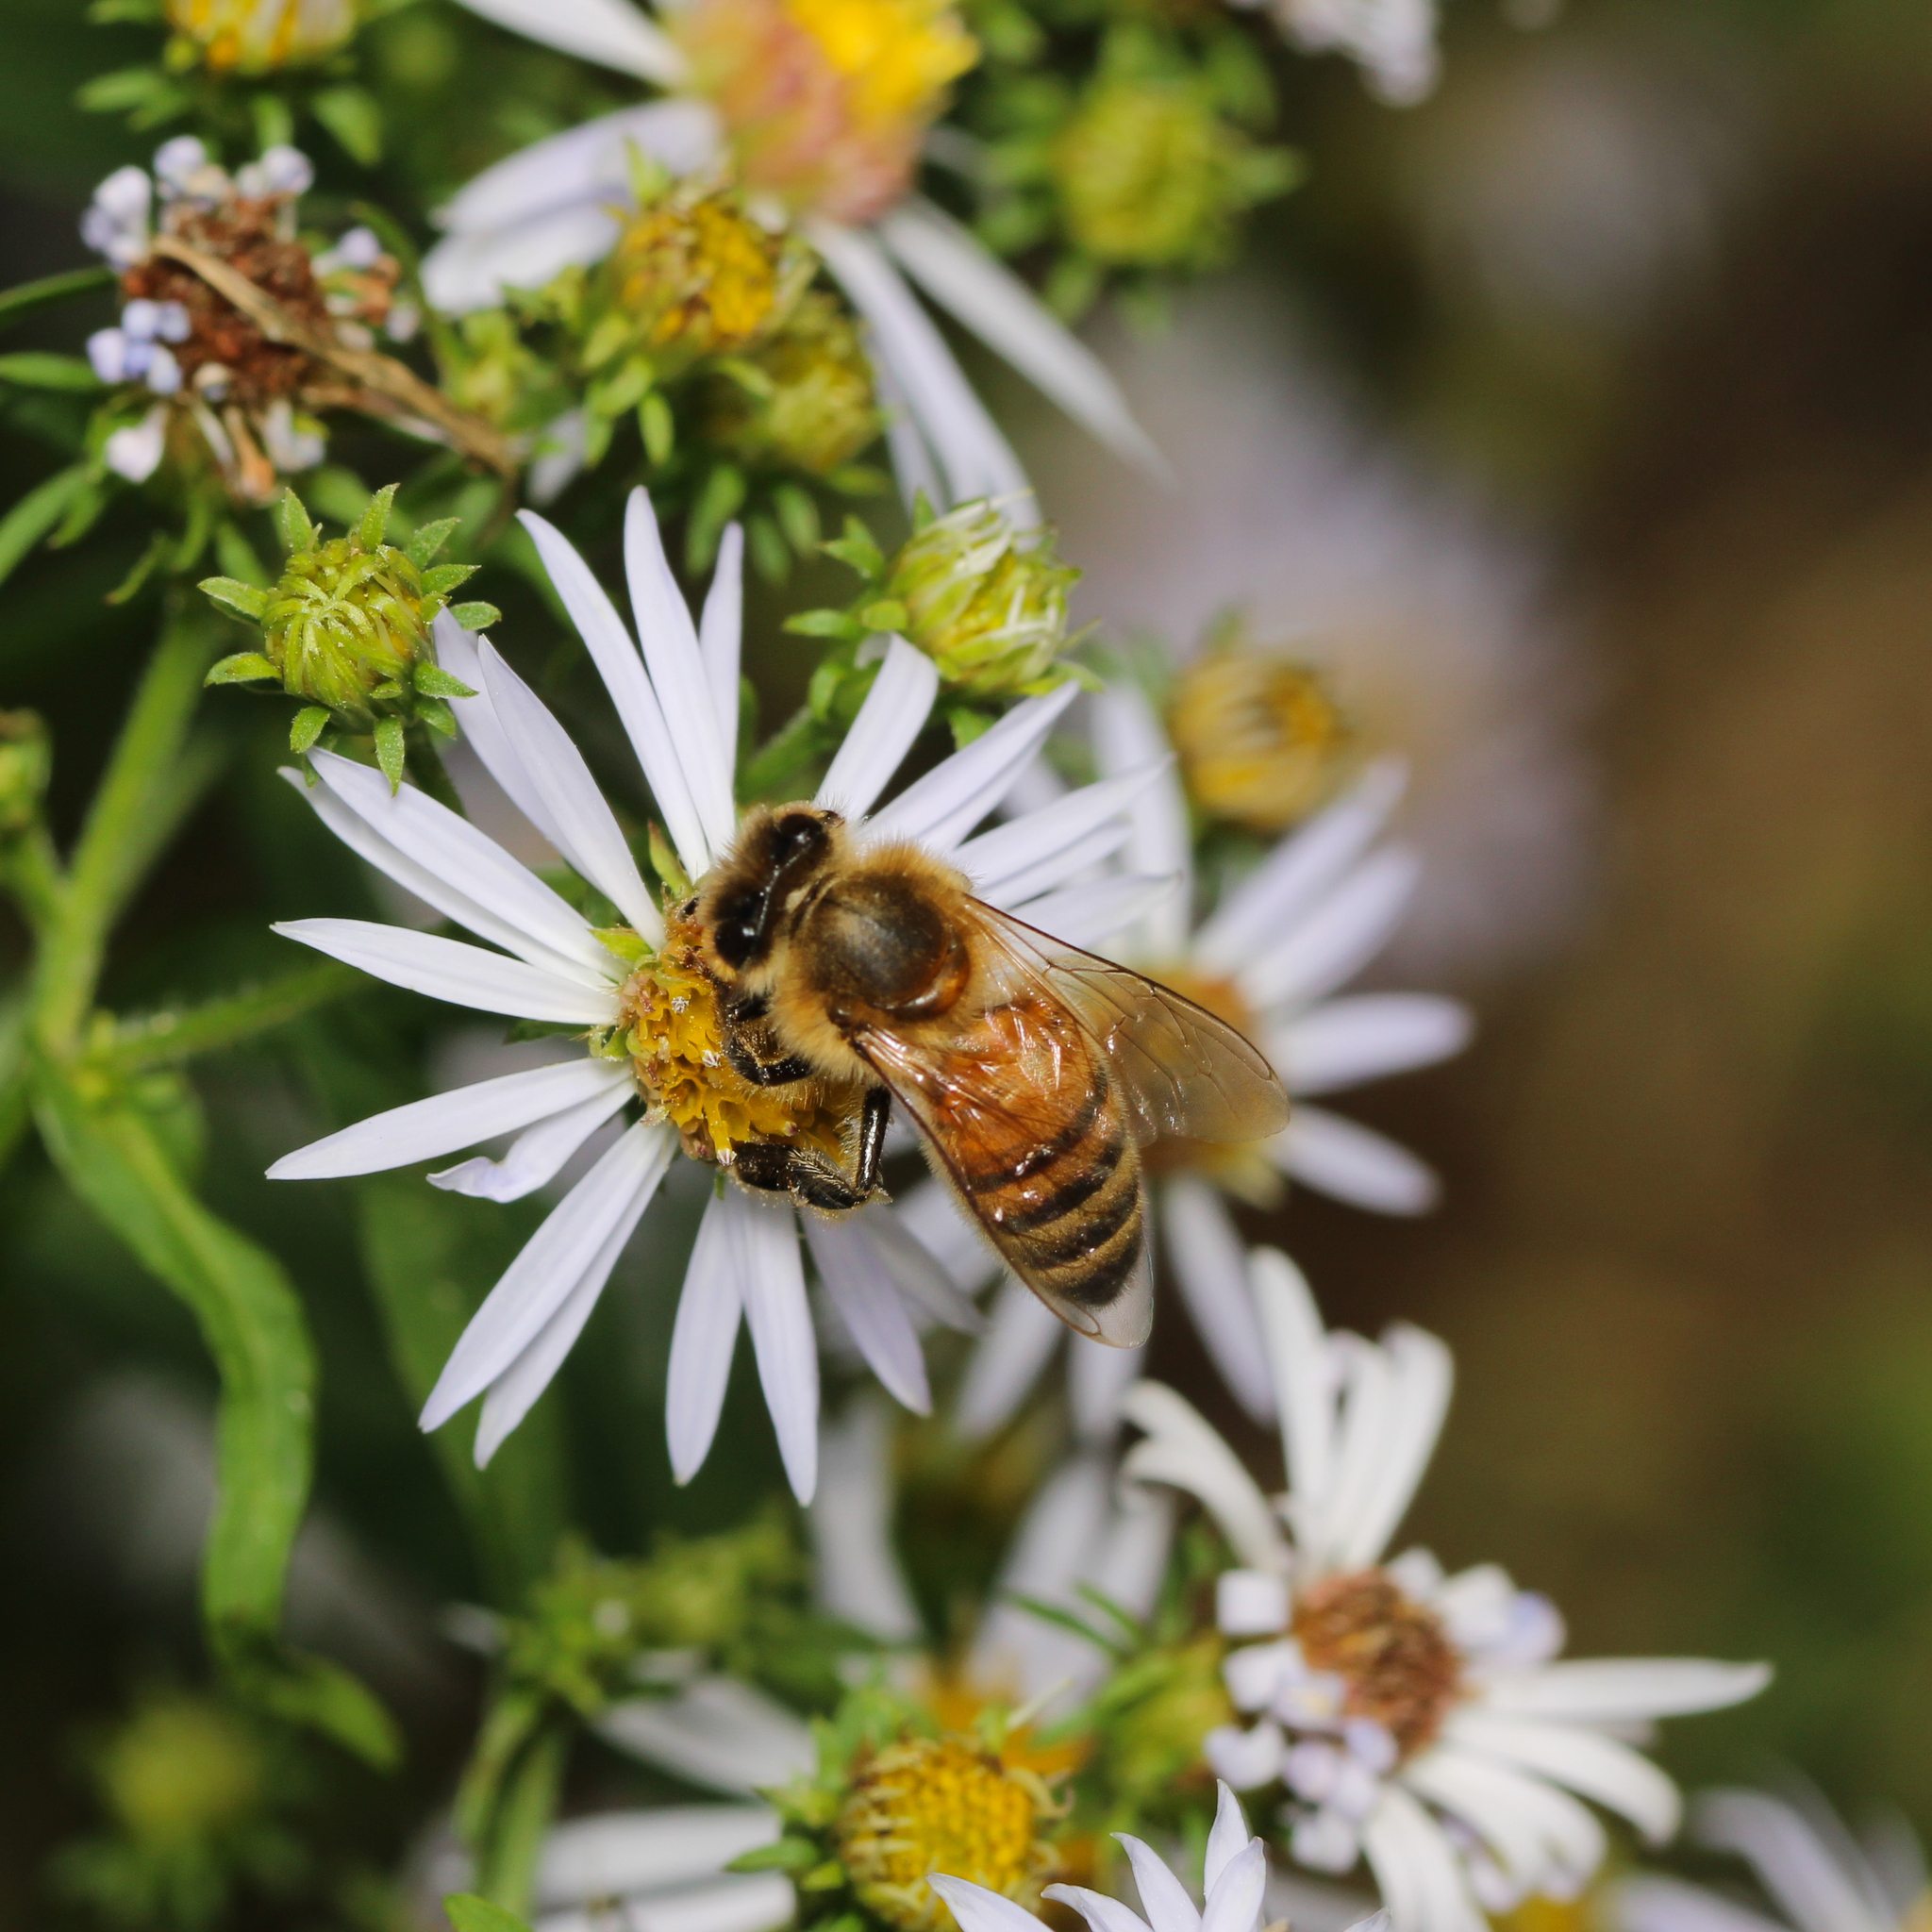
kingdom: Animalia
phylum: Arthropoda
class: Insecta
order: Hymenoptera
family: Apidae
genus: Apis
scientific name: Apis mellifera
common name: Honey bee
